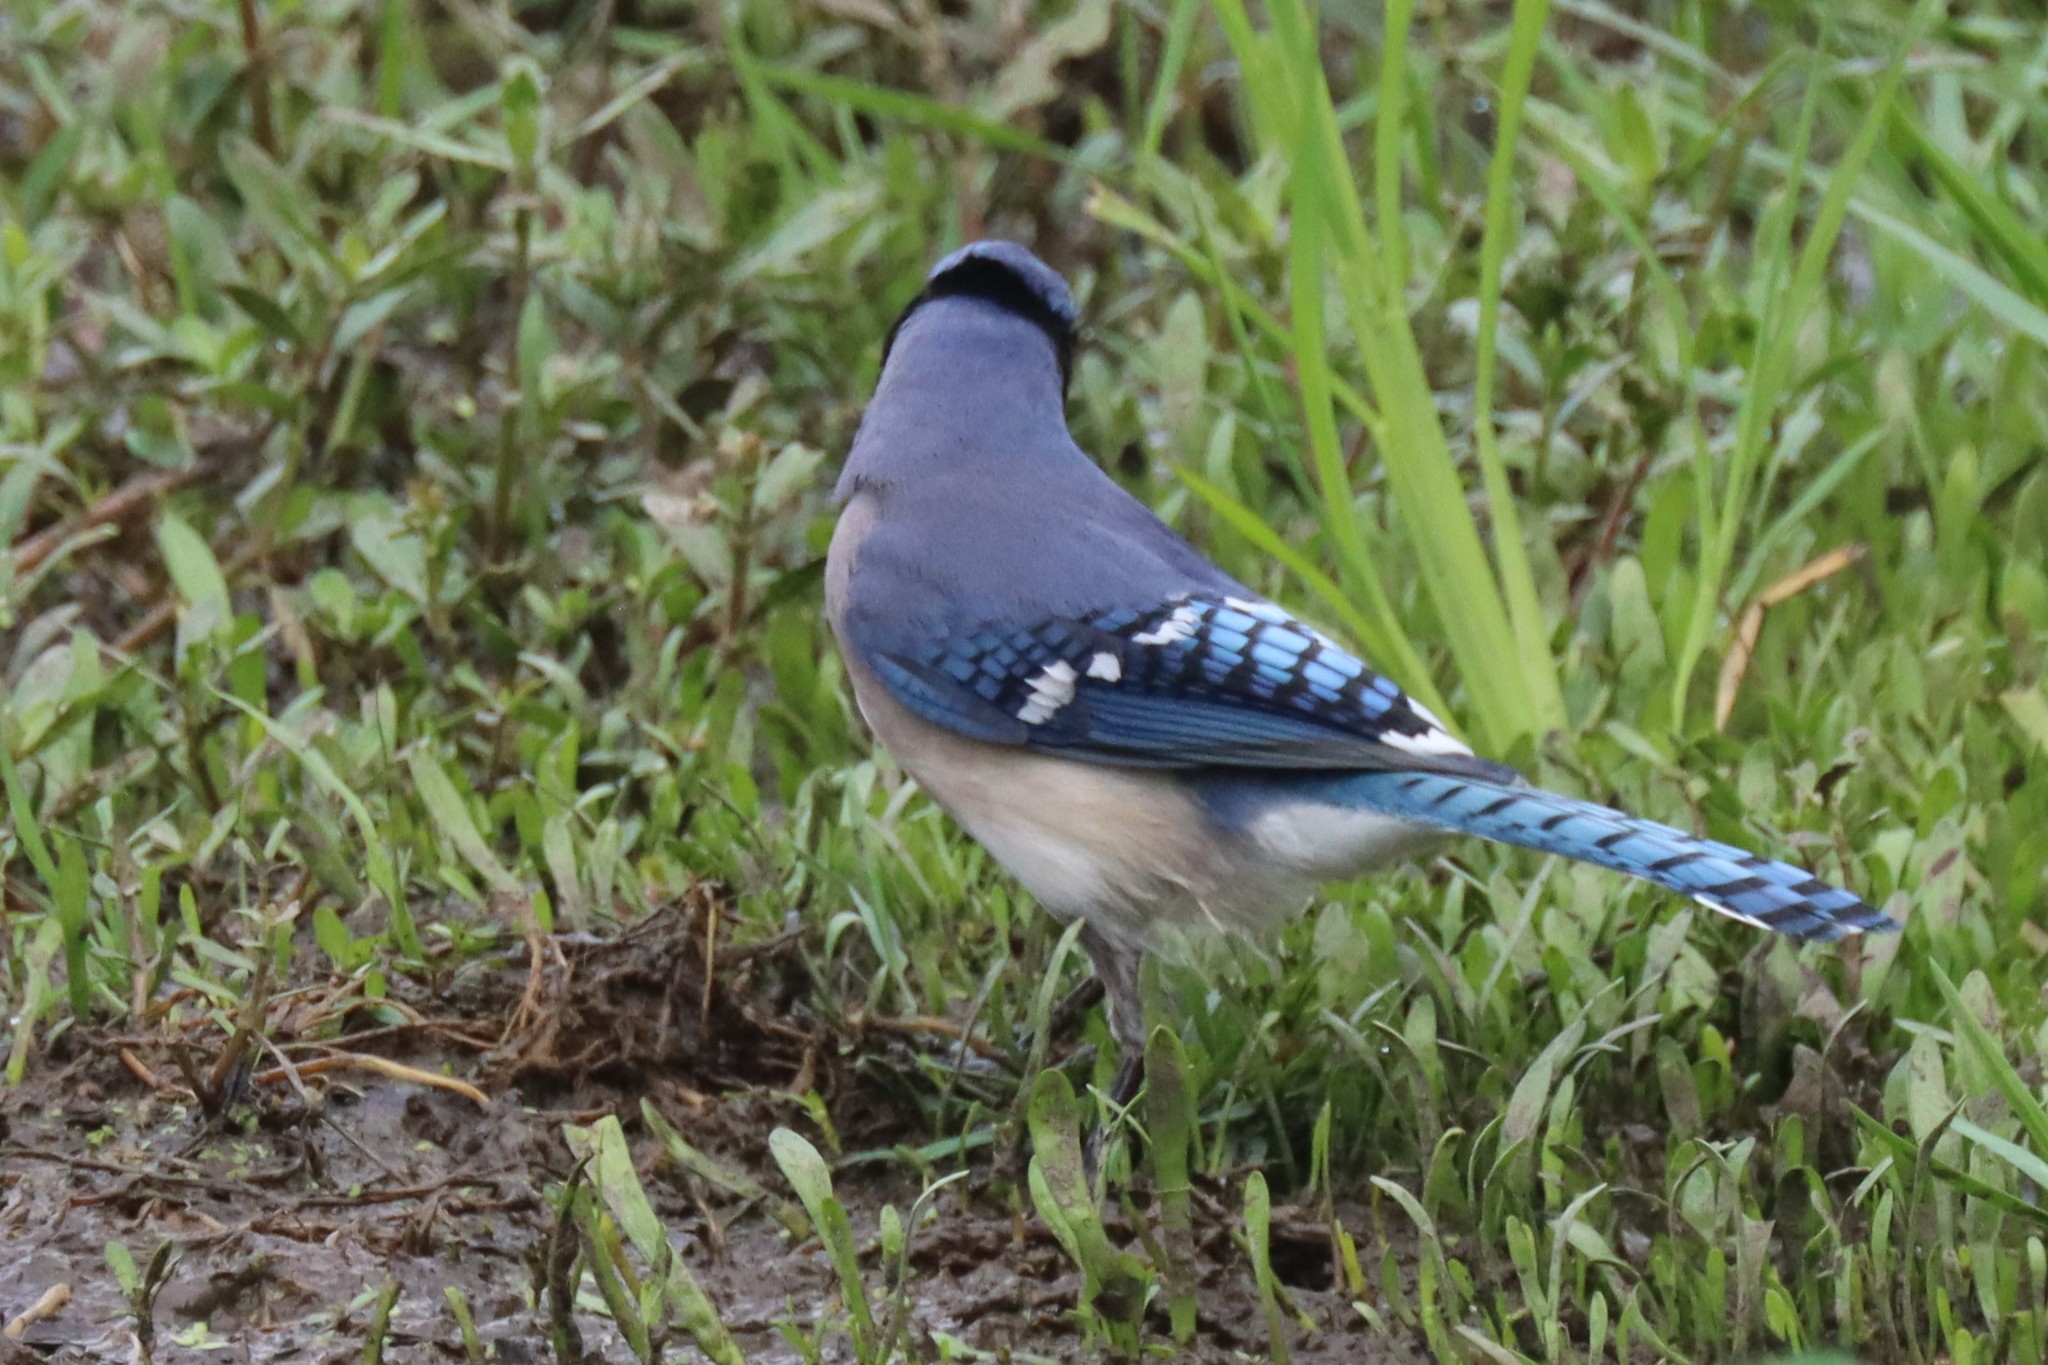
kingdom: Animalia
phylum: Chordata
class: Aves
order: Passeriformes
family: Corvidae
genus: Cyanocitta
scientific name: Cyanocitta cristata
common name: Blue jay
